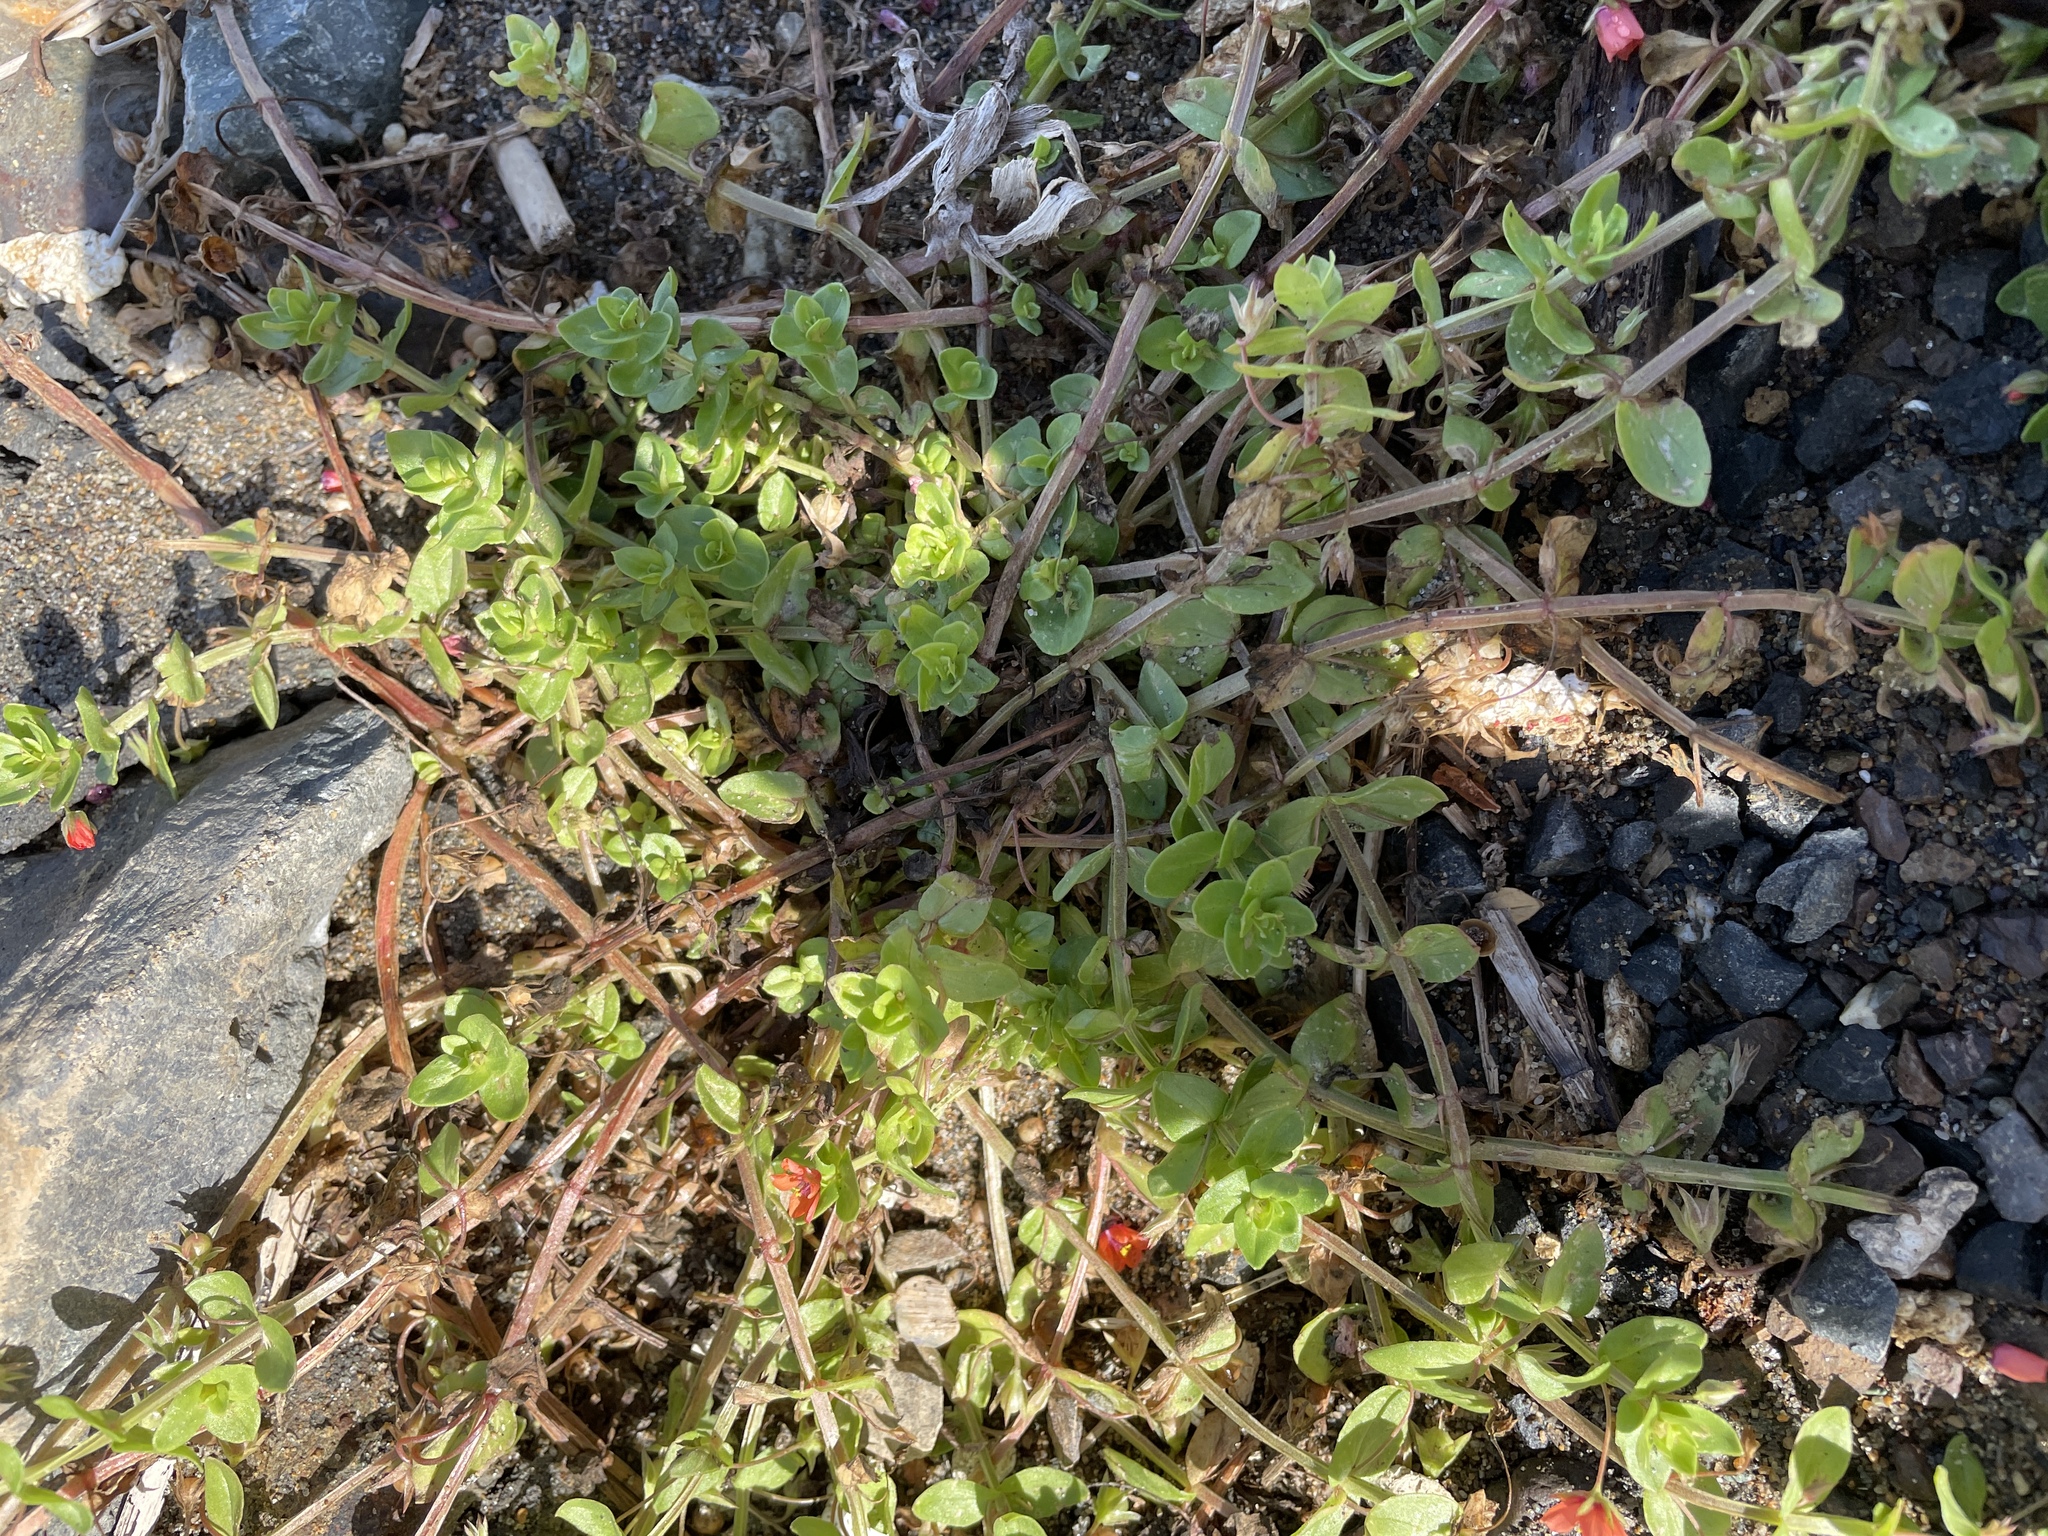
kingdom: Plantae
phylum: Tracheophyta
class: Magnoliopsida
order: Ericales
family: Primulaceae
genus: Lysimachia
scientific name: Lysimachia arvensis
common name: Scarlet pimpernel
